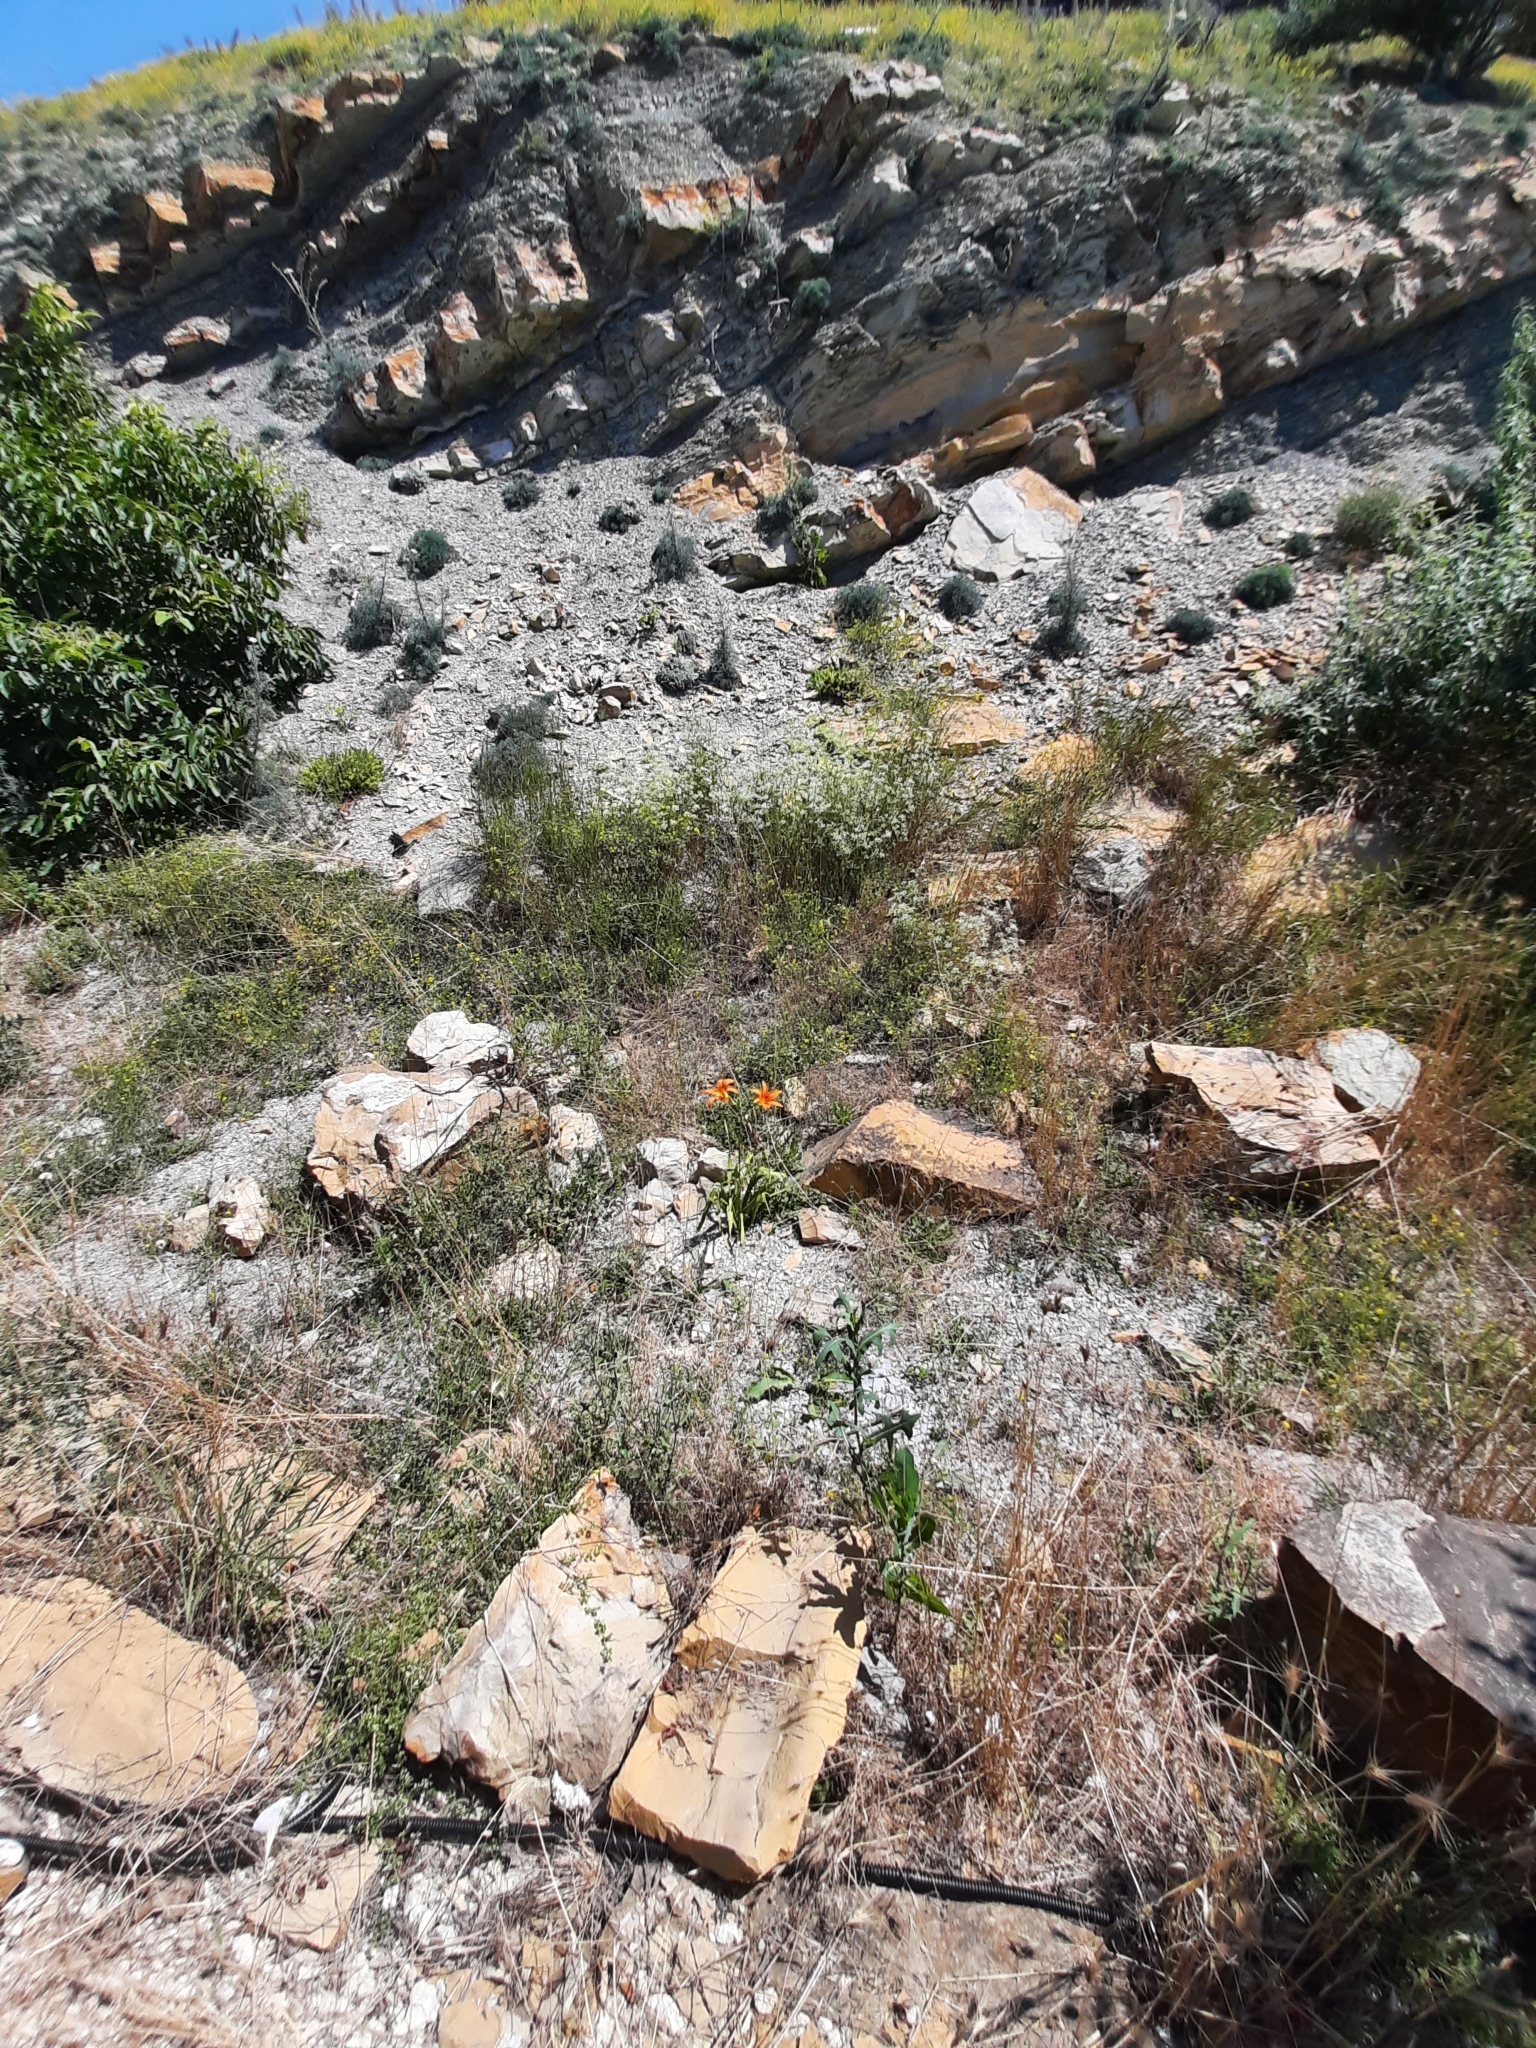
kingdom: Plantae
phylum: Tracheophyta
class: Liliopsida
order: Asparagales
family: Asphodelaceae
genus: Hemerocallis
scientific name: Hemerocallis fulva
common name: Orange day-lily
